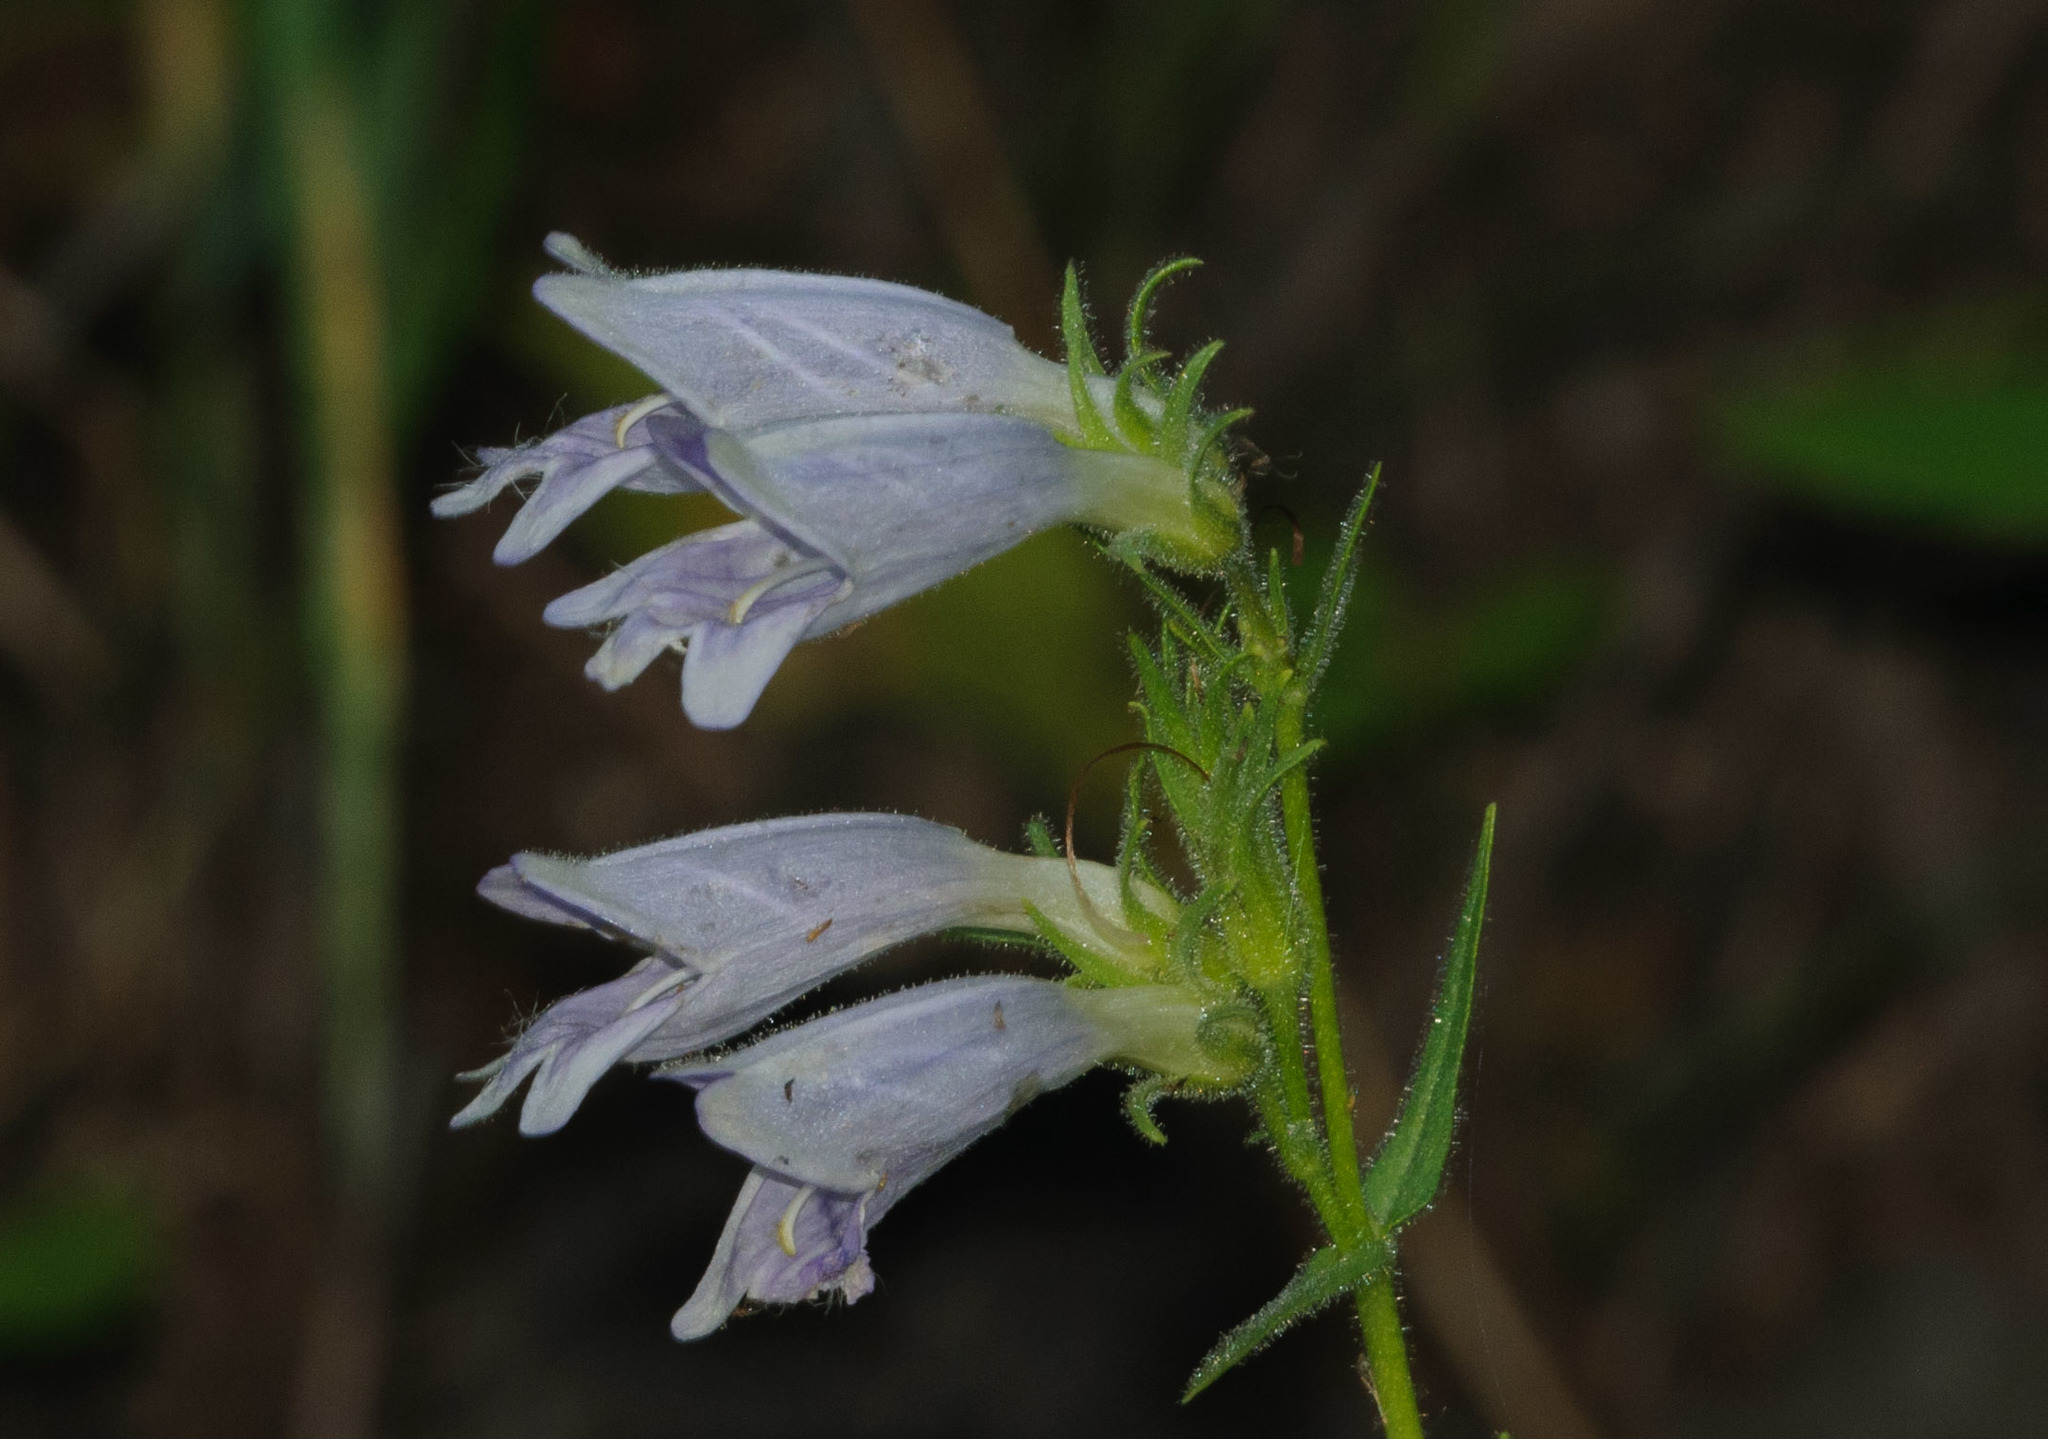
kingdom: Plantae
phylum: Tracheophyta
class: Magnoliopsida
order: Lamiales
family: Plantaginaceae
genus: Penstemon
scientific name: Penstemon whippleanus
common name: Whipple's penstemon
